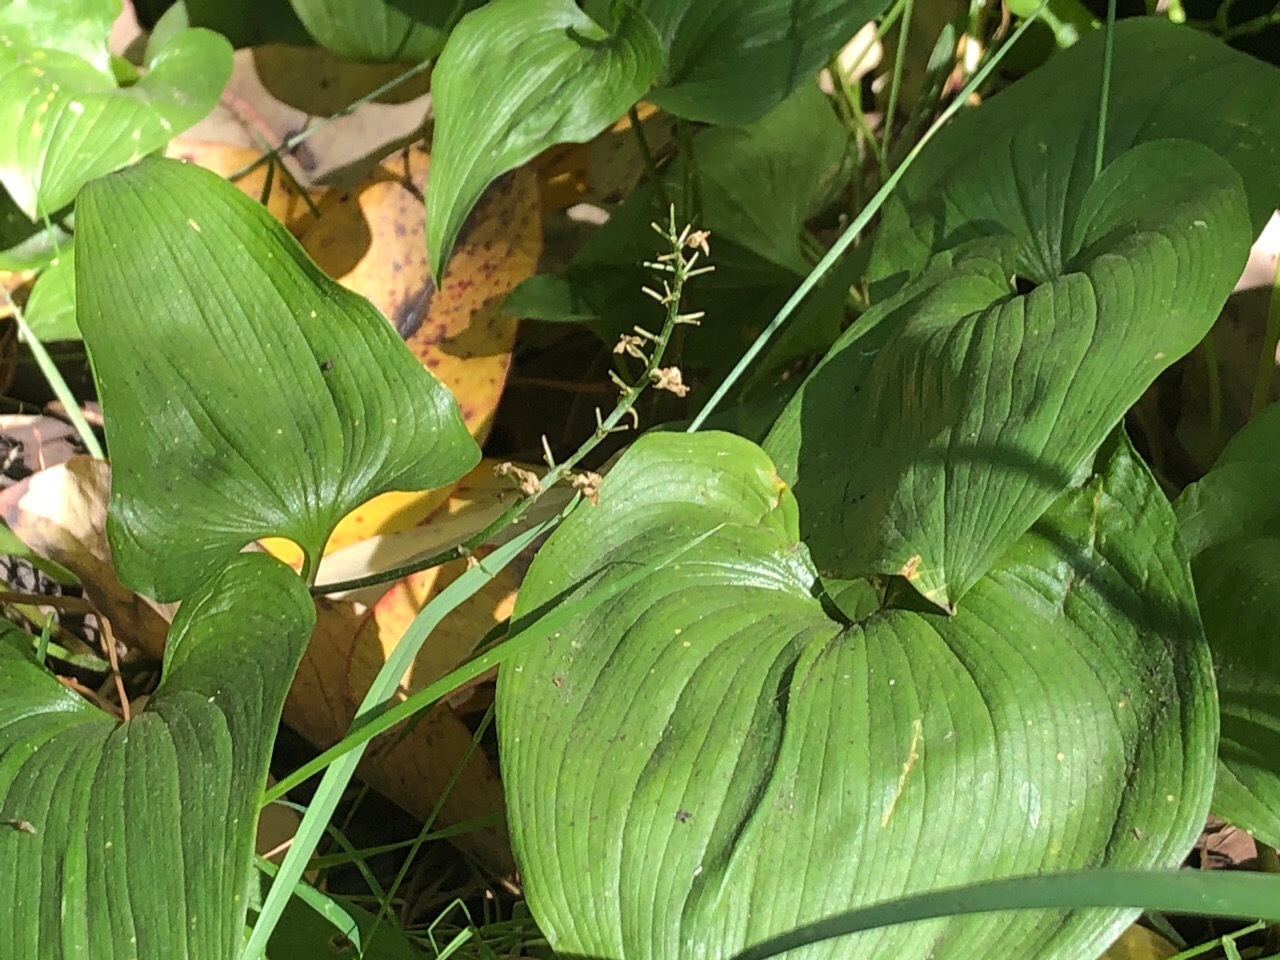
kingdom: Plantae
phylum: Tracheophyta
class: Liliopsida
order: Asparagales
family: Asparagaceae
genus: Maianthemum
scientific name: Maianthemum dilatatum
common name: False lily-of-the-valley
